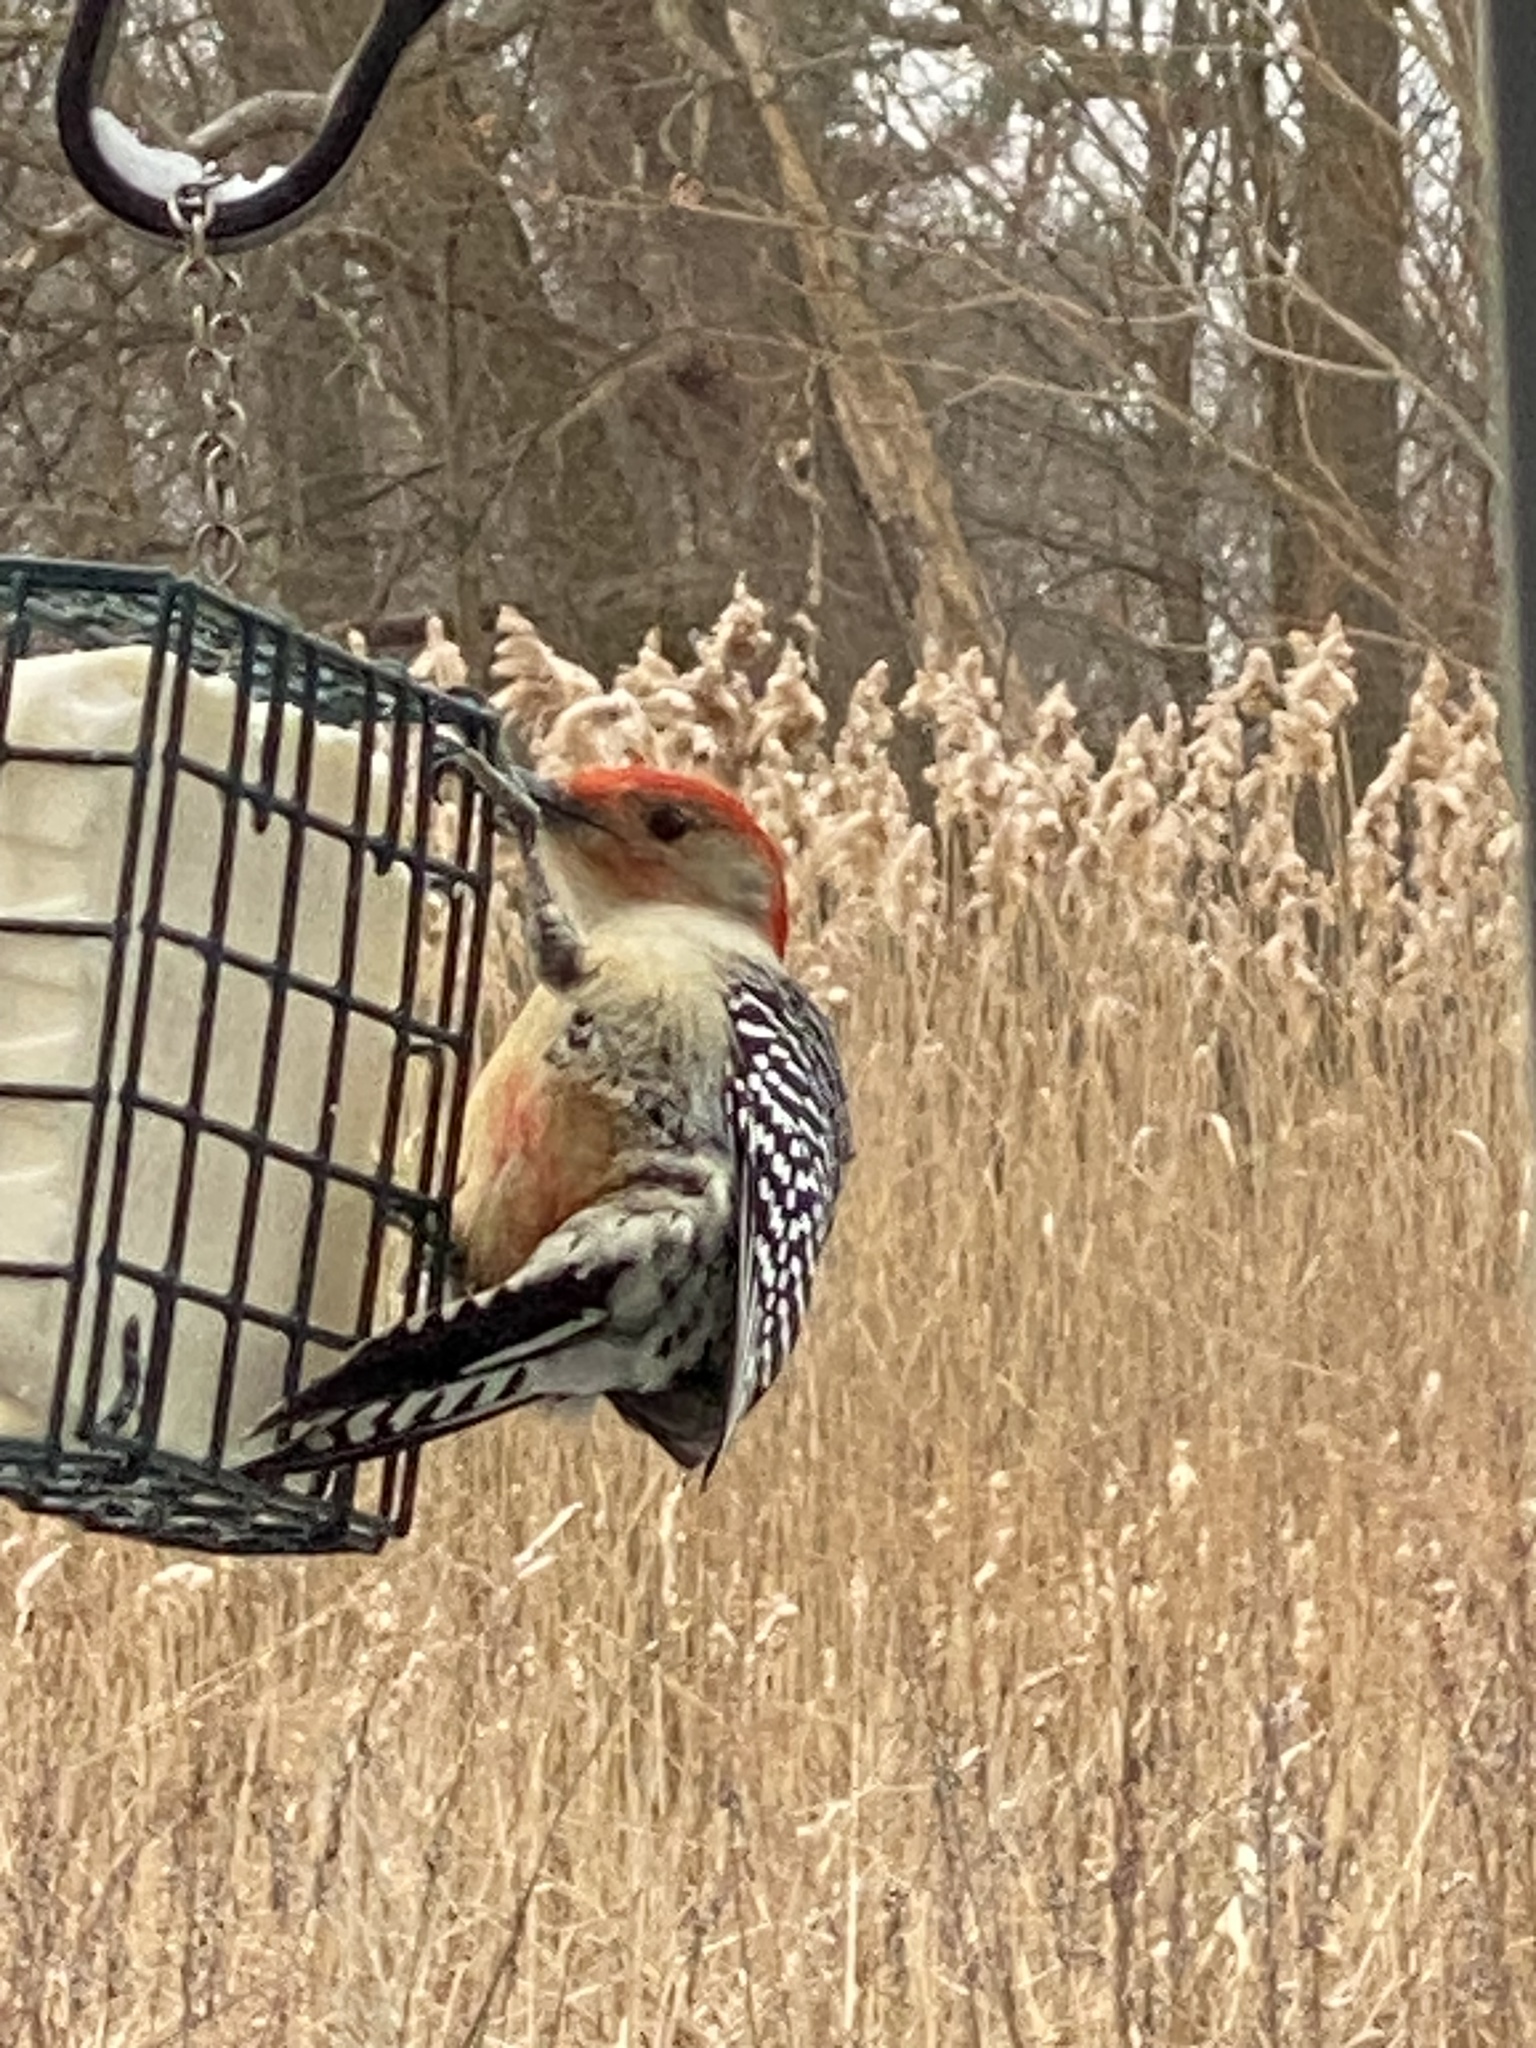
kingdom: Animalia
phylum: Chordata
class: Aves
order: Piciformes
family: Picidae
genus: Melanerpes
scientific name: Melanerpes carolinus
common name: Red-bellied woodpecker
